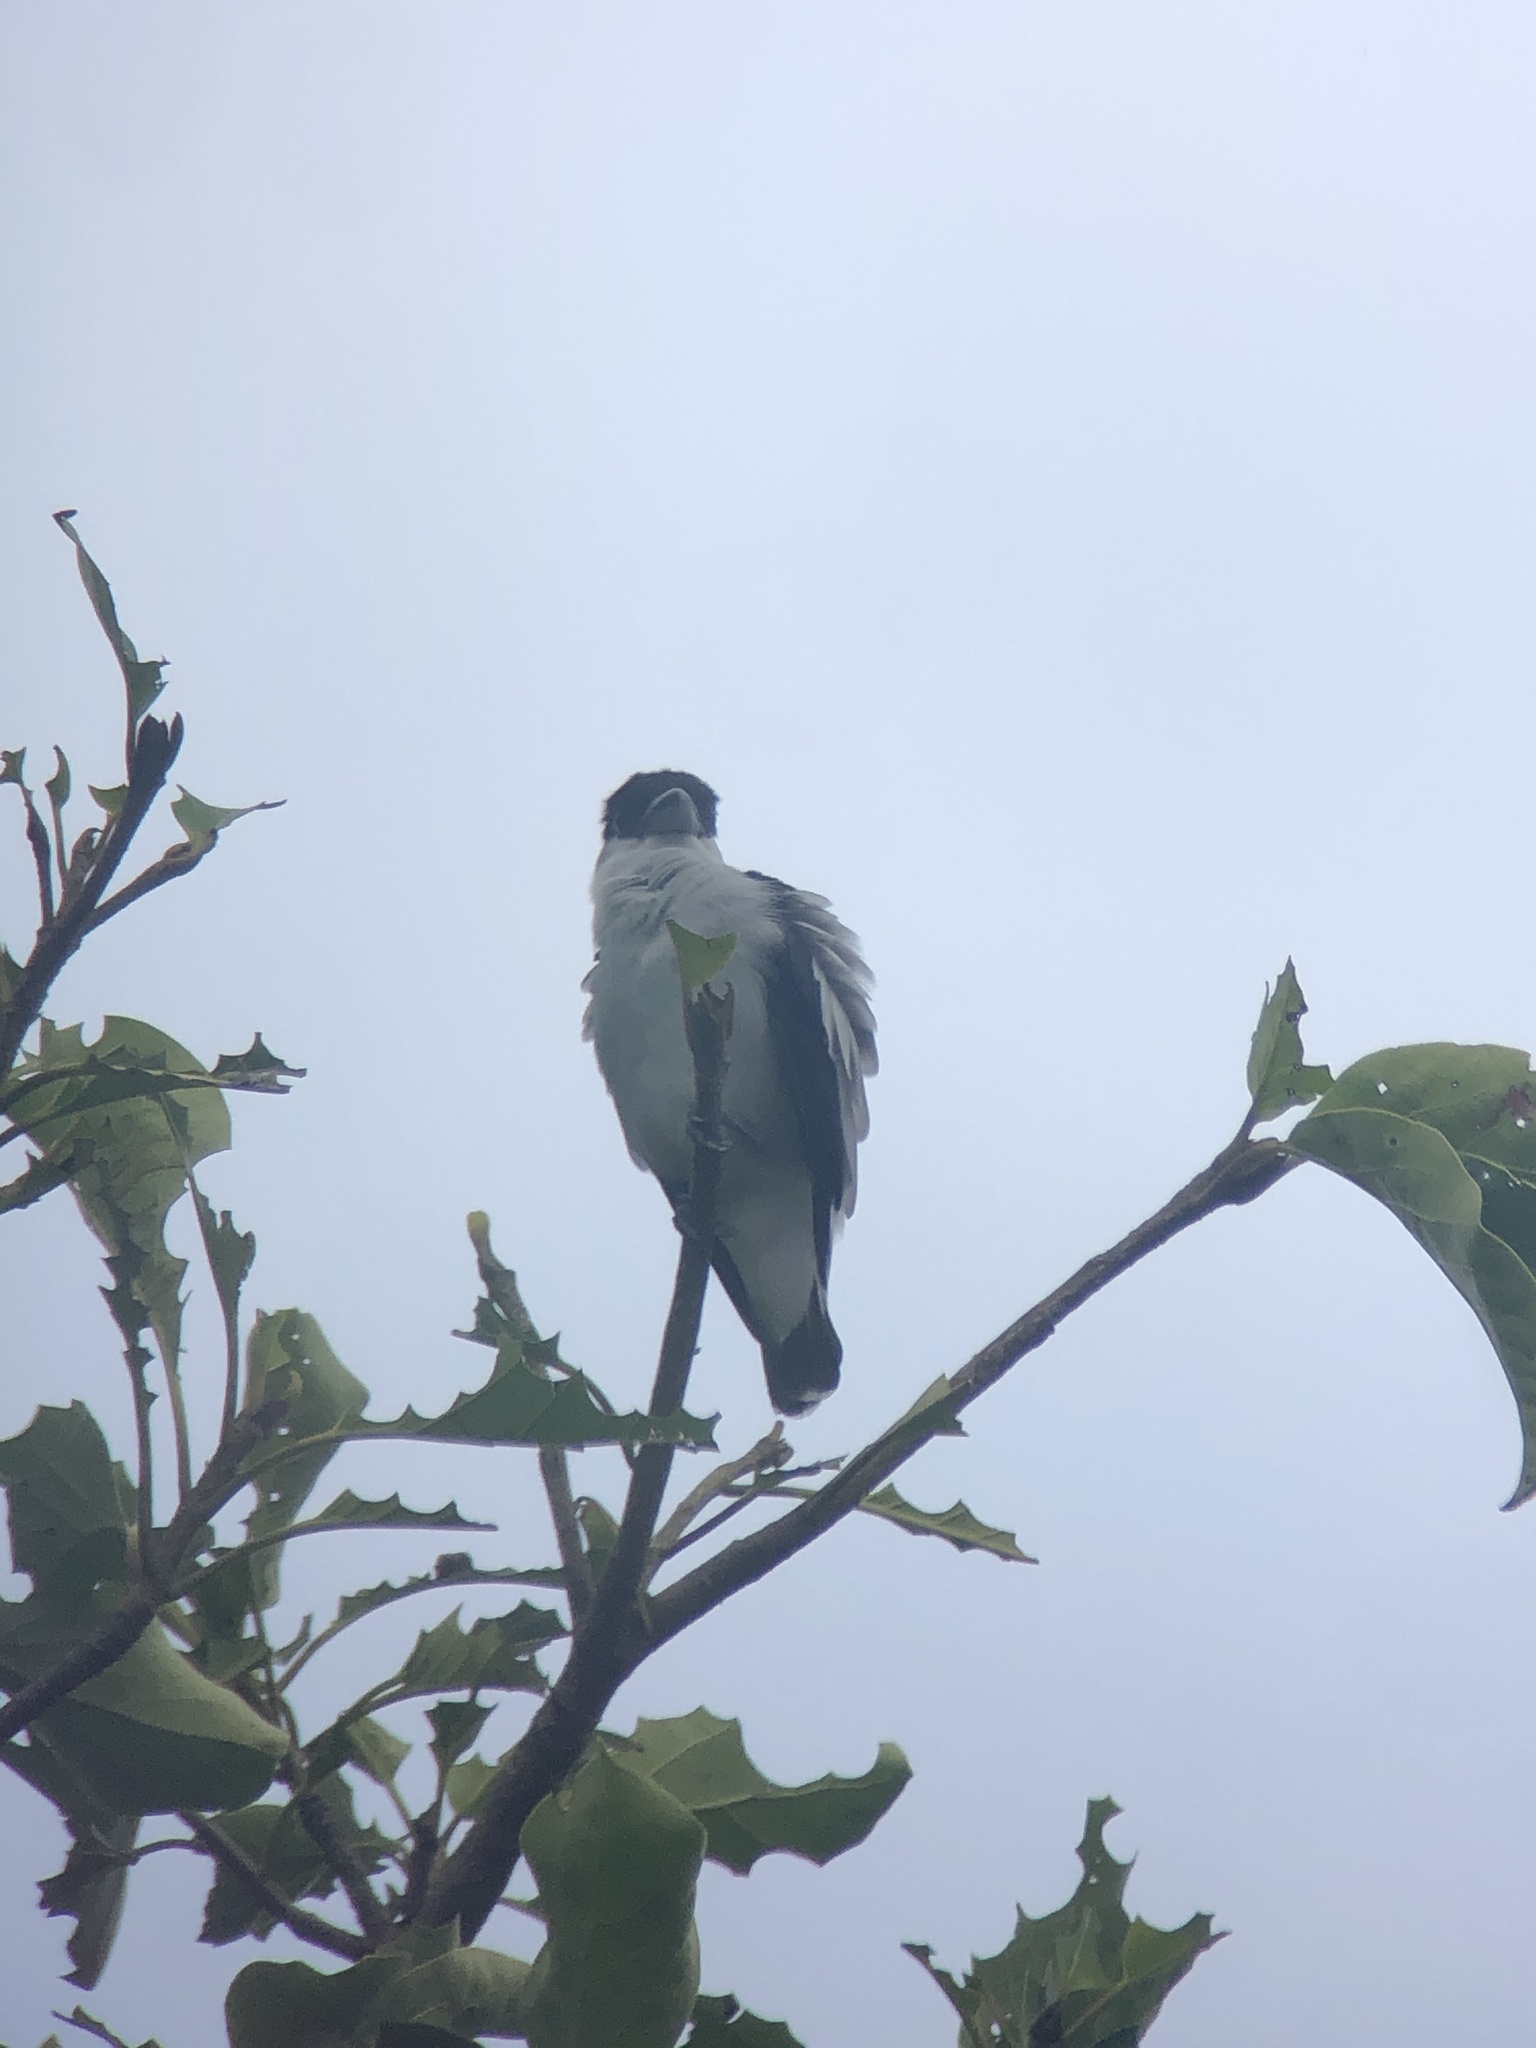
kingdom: Animalia
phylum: Chordata
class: Aves
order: Passeriformes
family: Cotingidae
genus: Tityra
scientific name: Tityra inquisitor
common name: Black-crowned tityra
